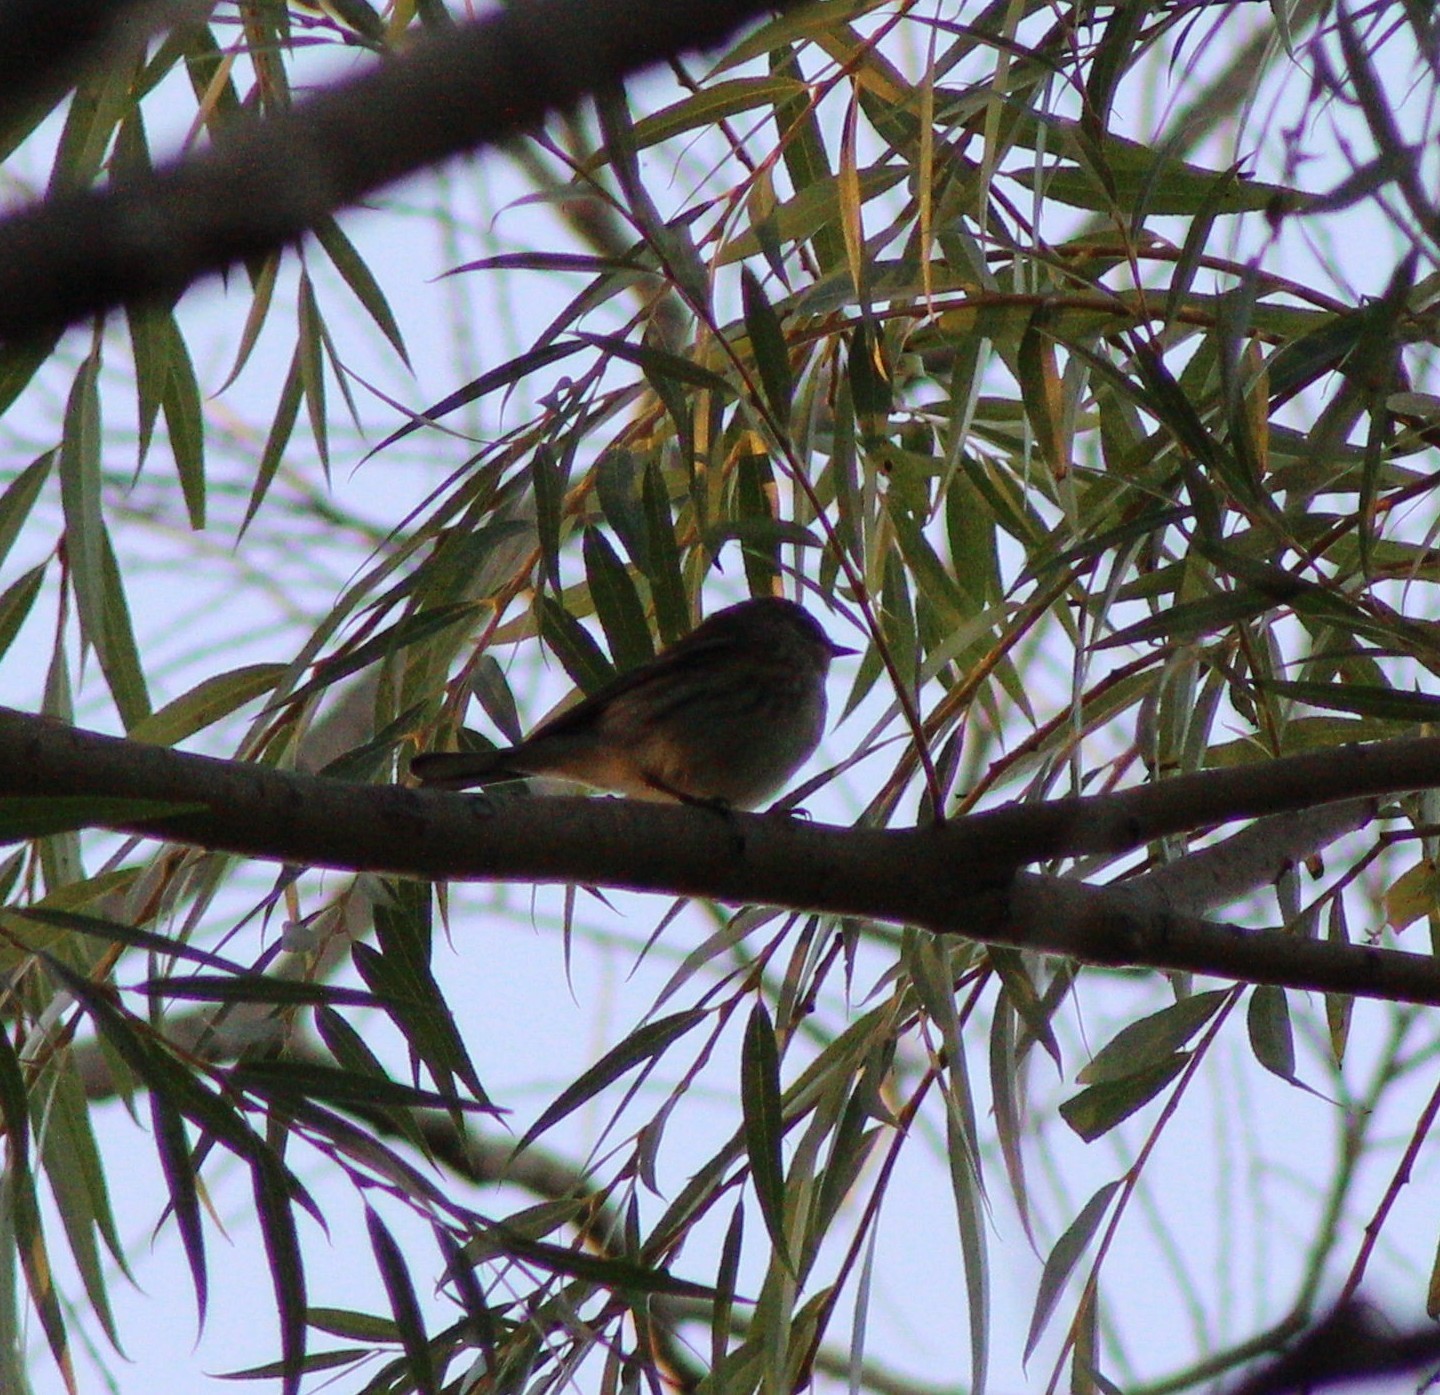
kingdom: Animalia
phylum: Chordata
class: Aves
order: Passeriformes
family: Parulidae
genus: Setophaga
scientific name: Setophaga coronata
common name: Myrtle warbler
